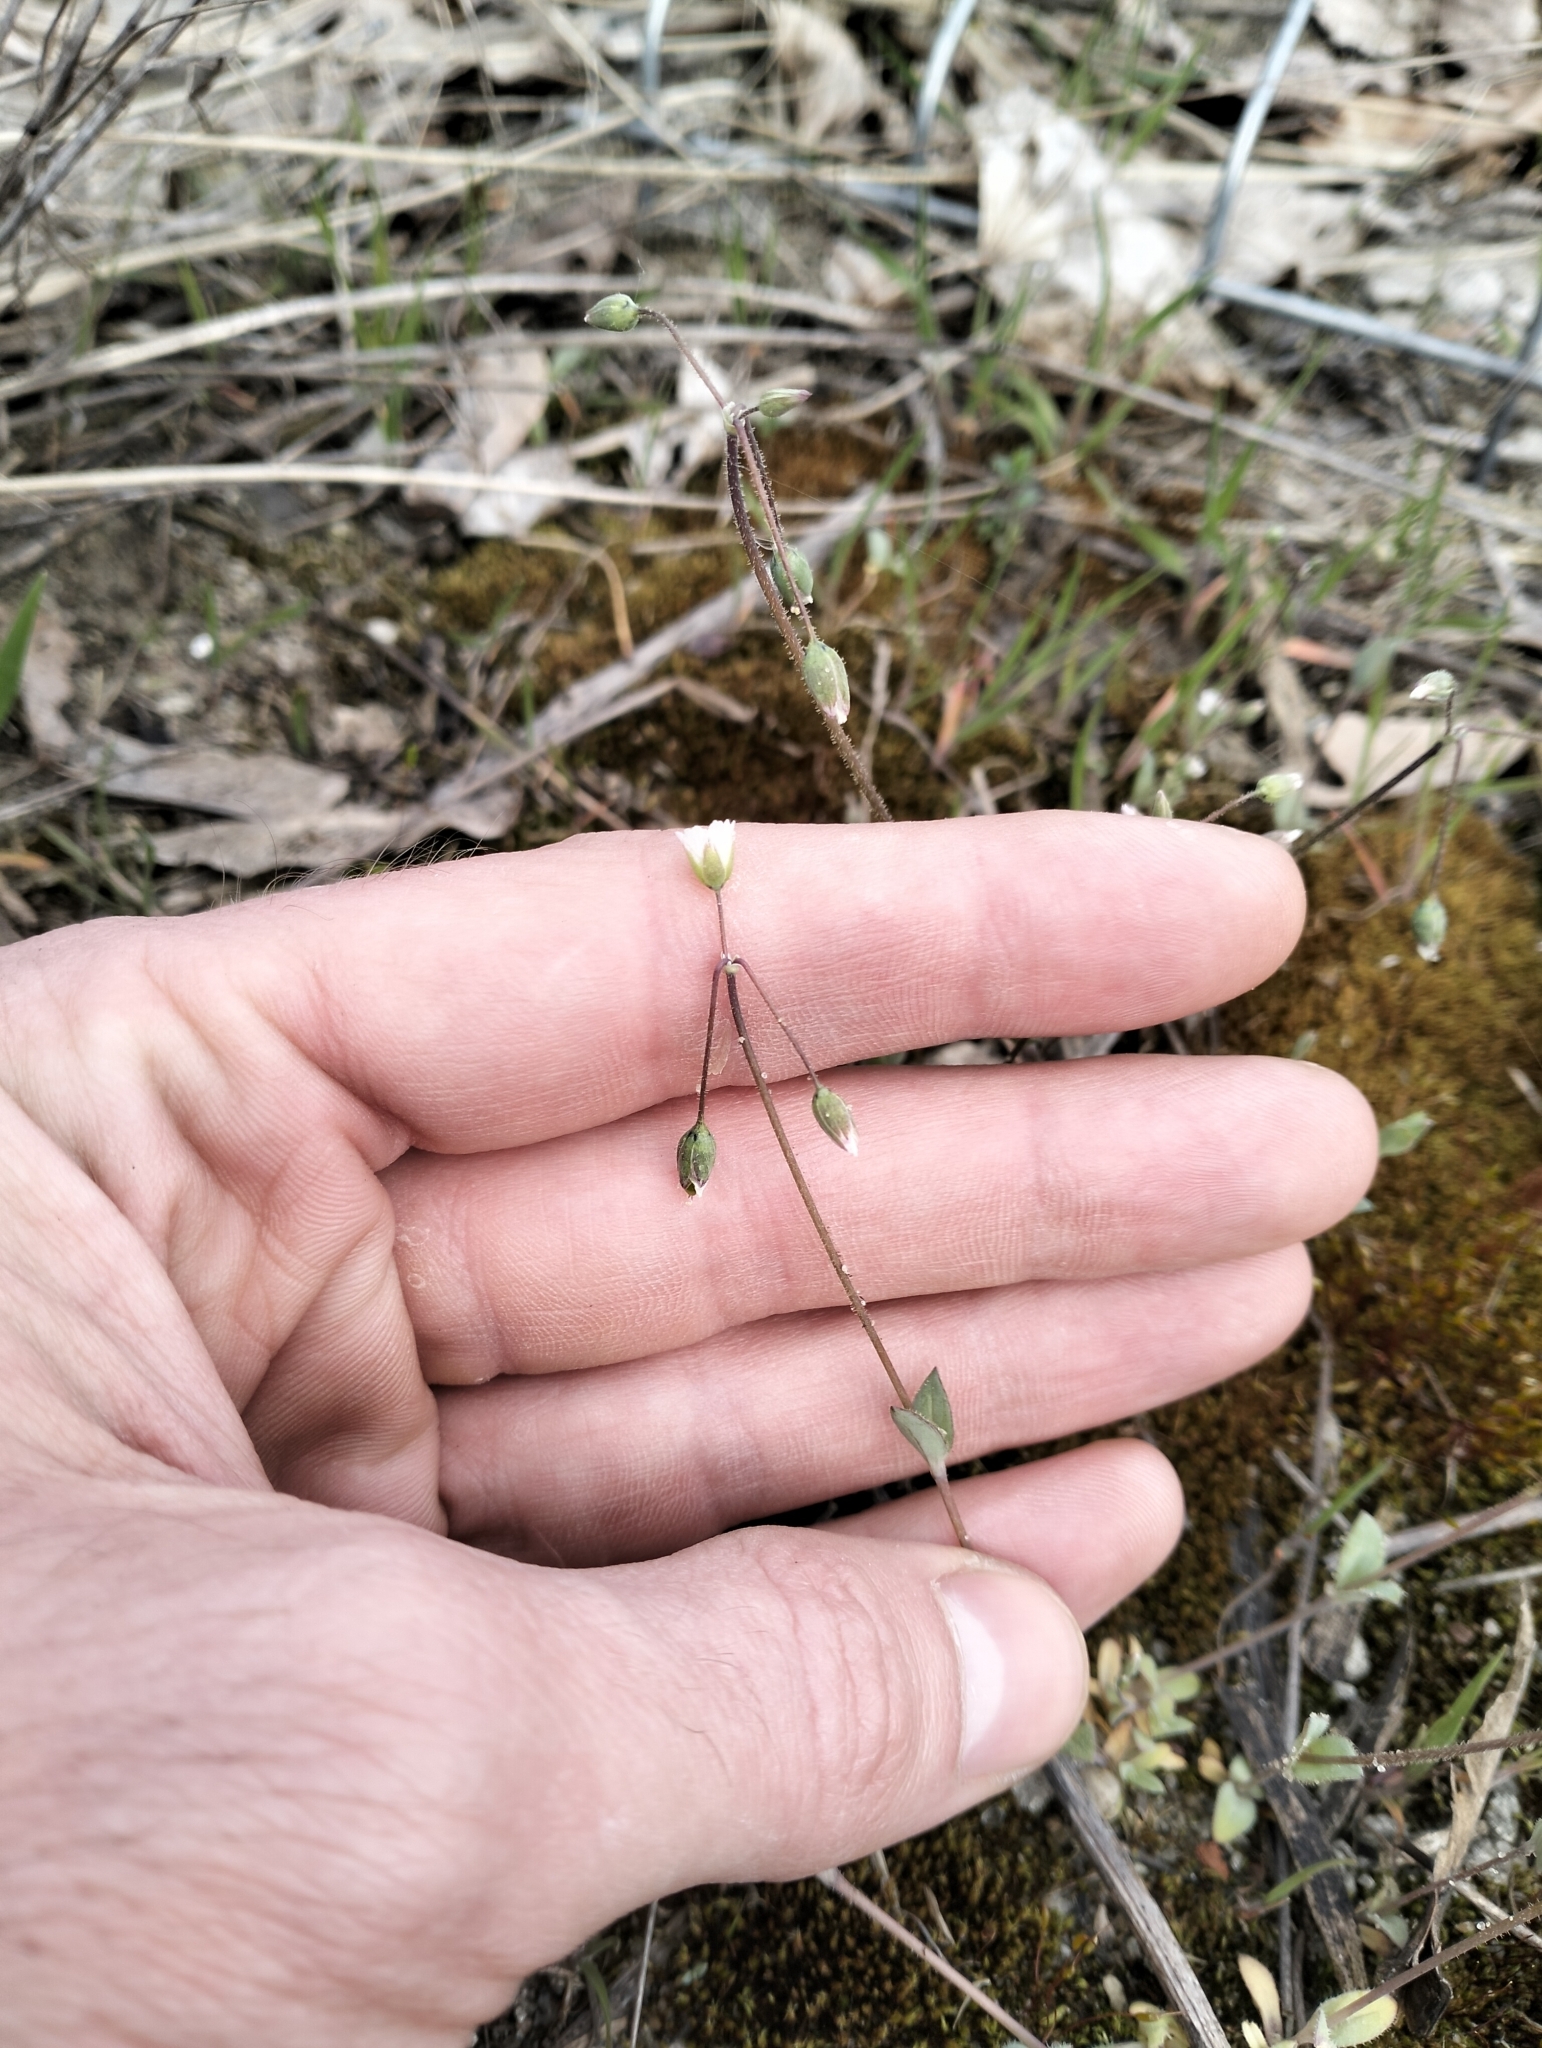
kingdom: Plantae
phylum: Tracheophyta
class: Magnoliopsida
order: Caryophyllales
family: Caryophyllaceae
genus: Holosteum
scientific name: Holosteum umbellatum
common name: Jagged chickweed
